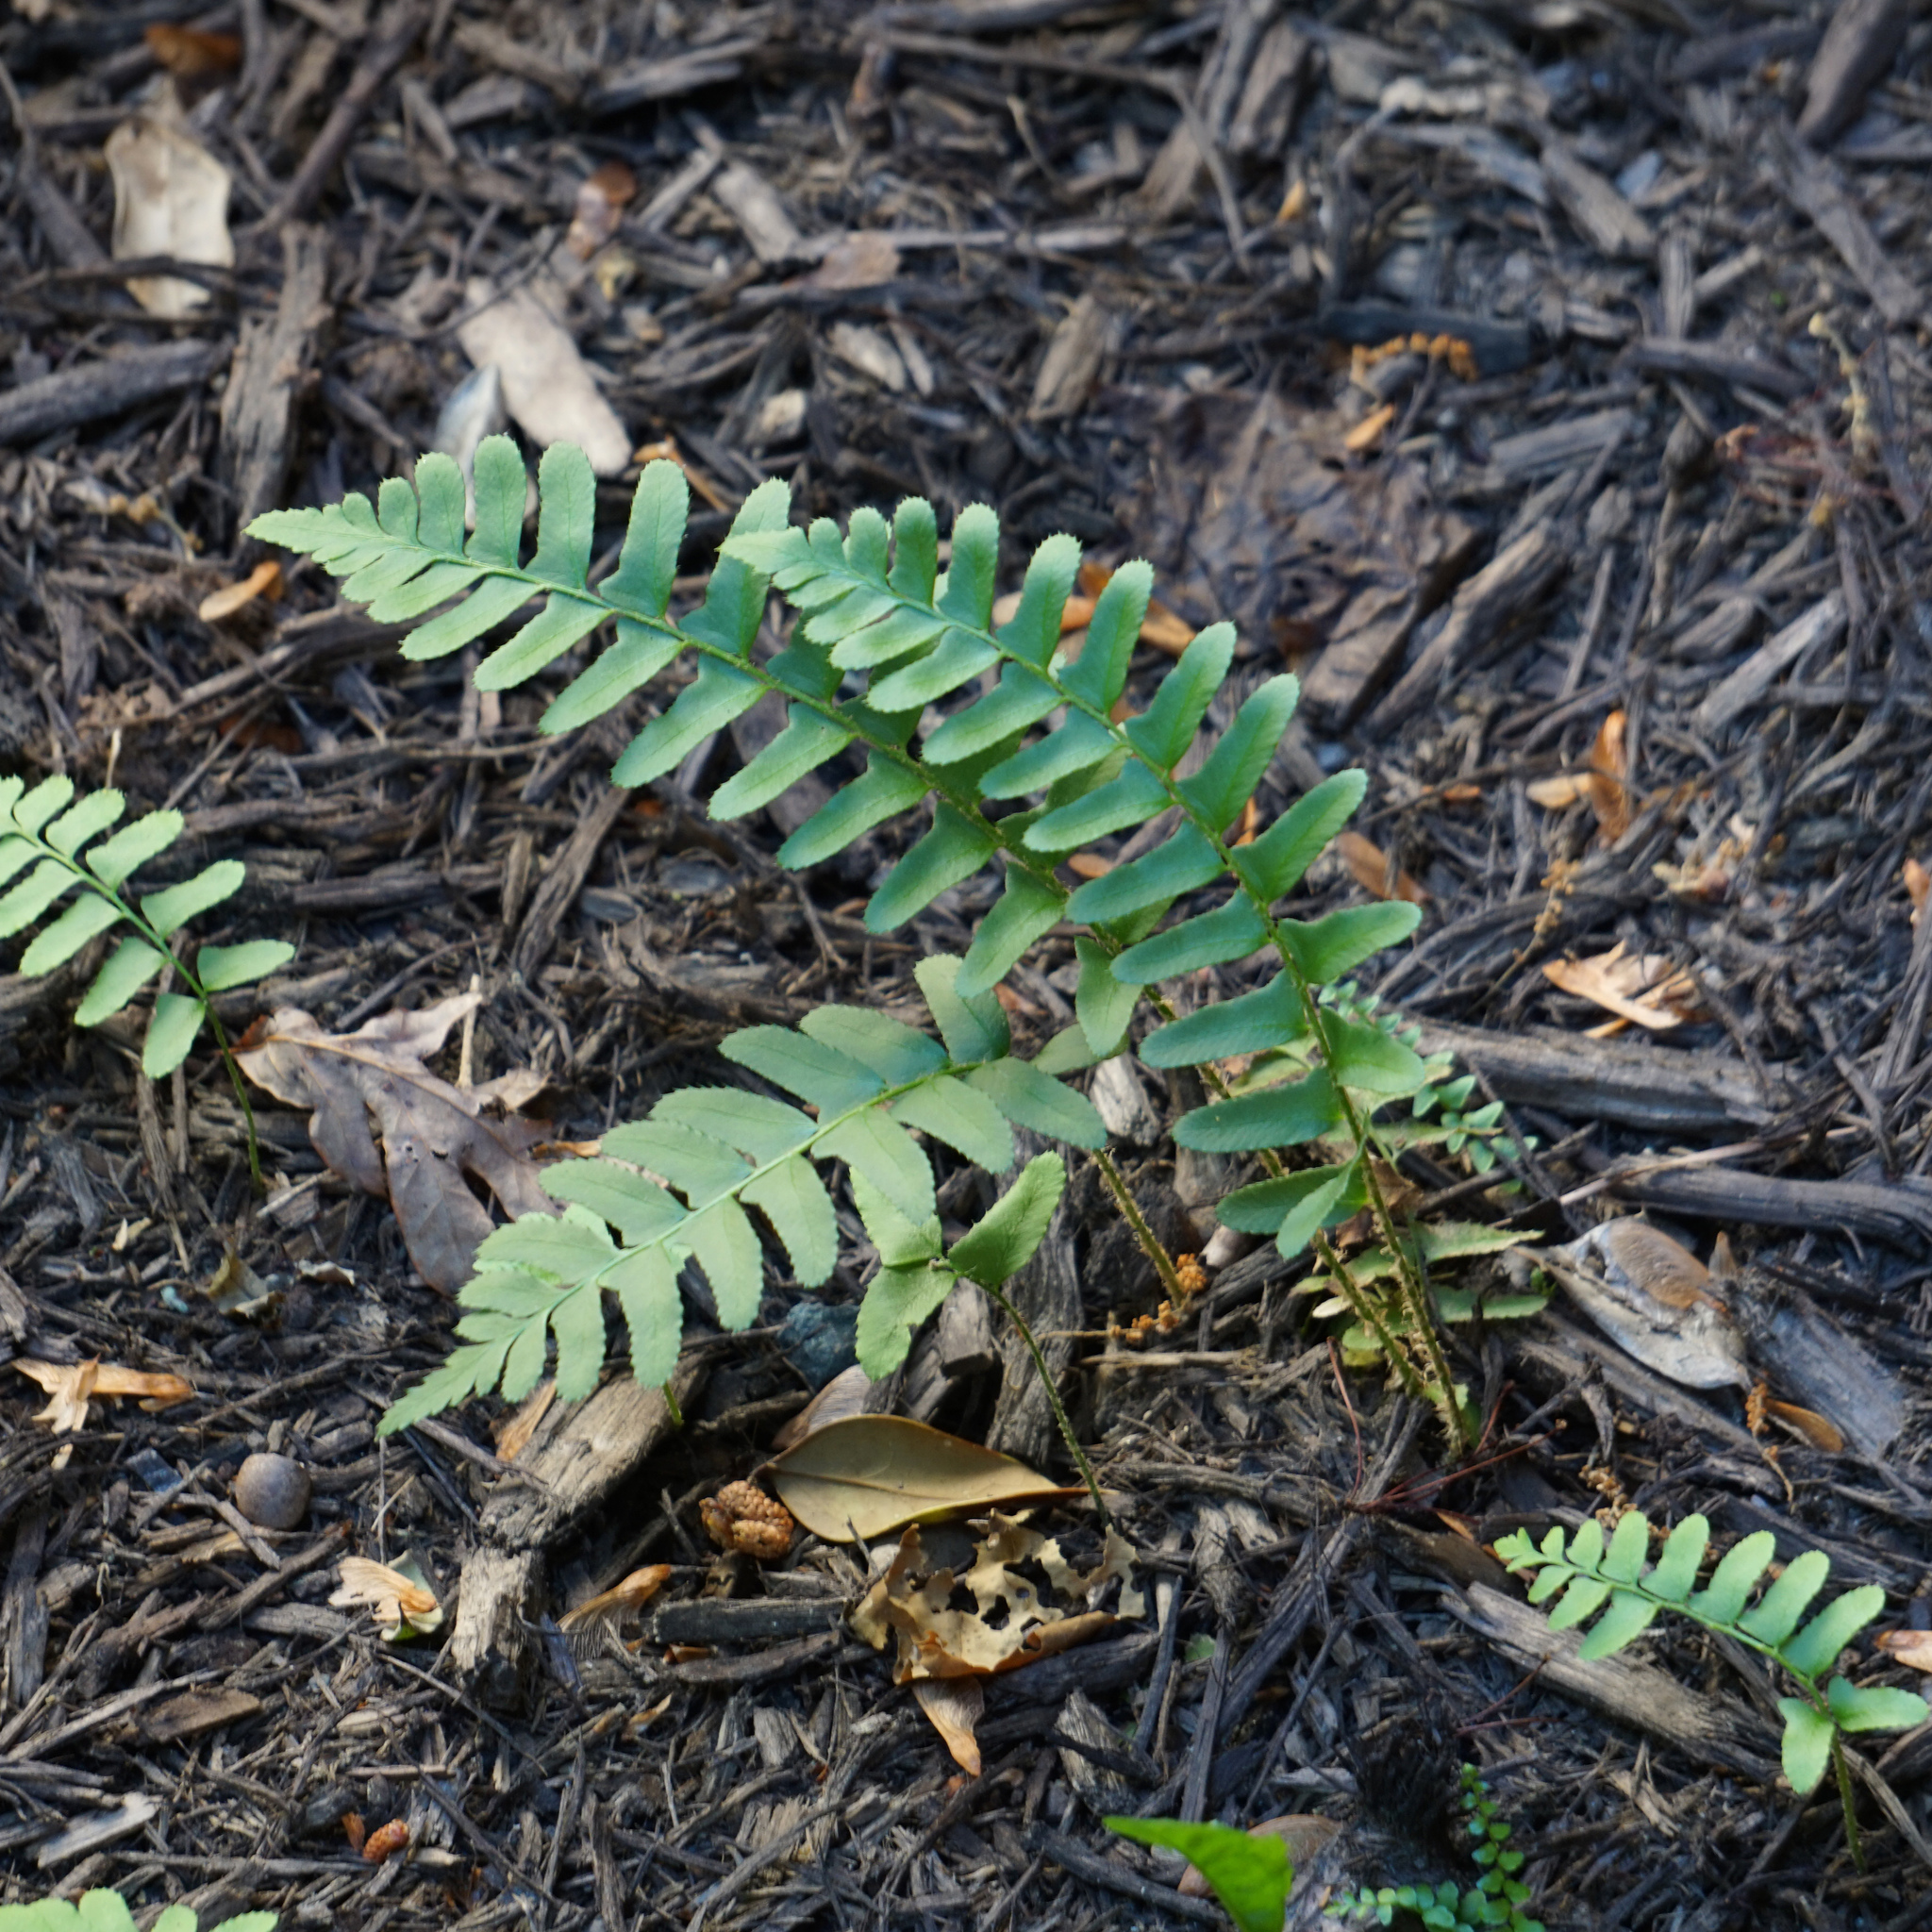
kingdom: Plantae
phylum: Tracheophyta
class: Polypodiopsida
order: Polypodiales
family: Dryopteridaceae
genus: Polystichum
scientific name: Polystichum acrostichoides
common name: Christmas fern
